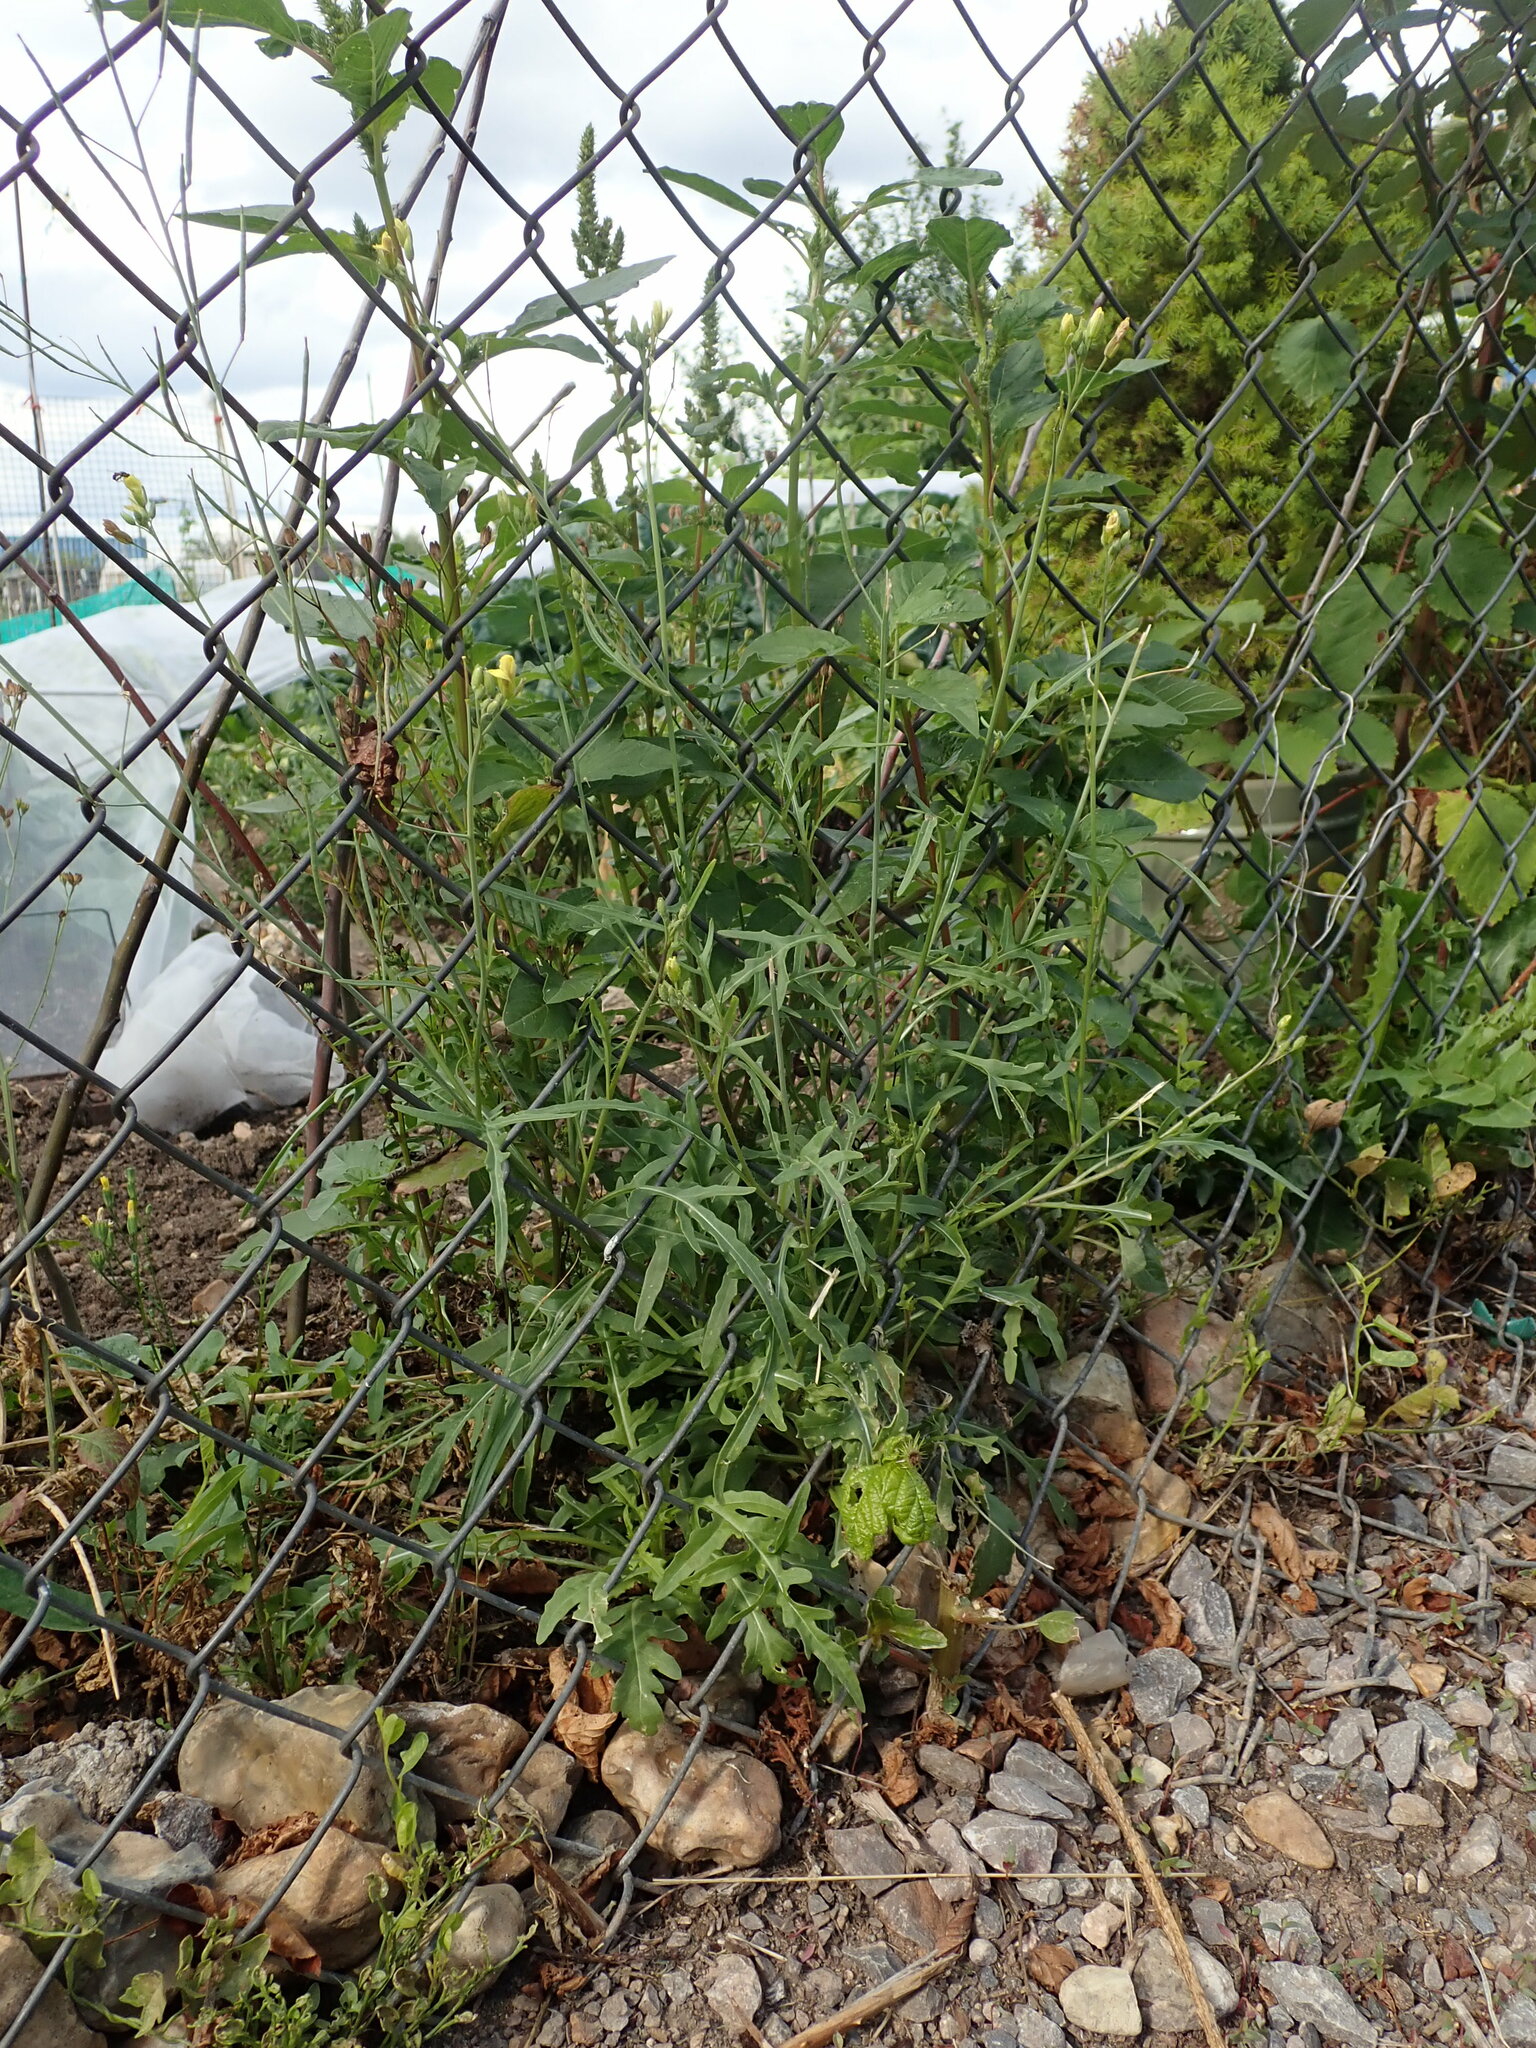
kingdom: Plantae
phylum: Tracheophyta
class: Magnoliopsida
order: Brassicales
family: Brassicaceae
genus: Diplotaxis
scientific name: Diplotaxis tenuifolia
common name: Perennial wall-rocket
